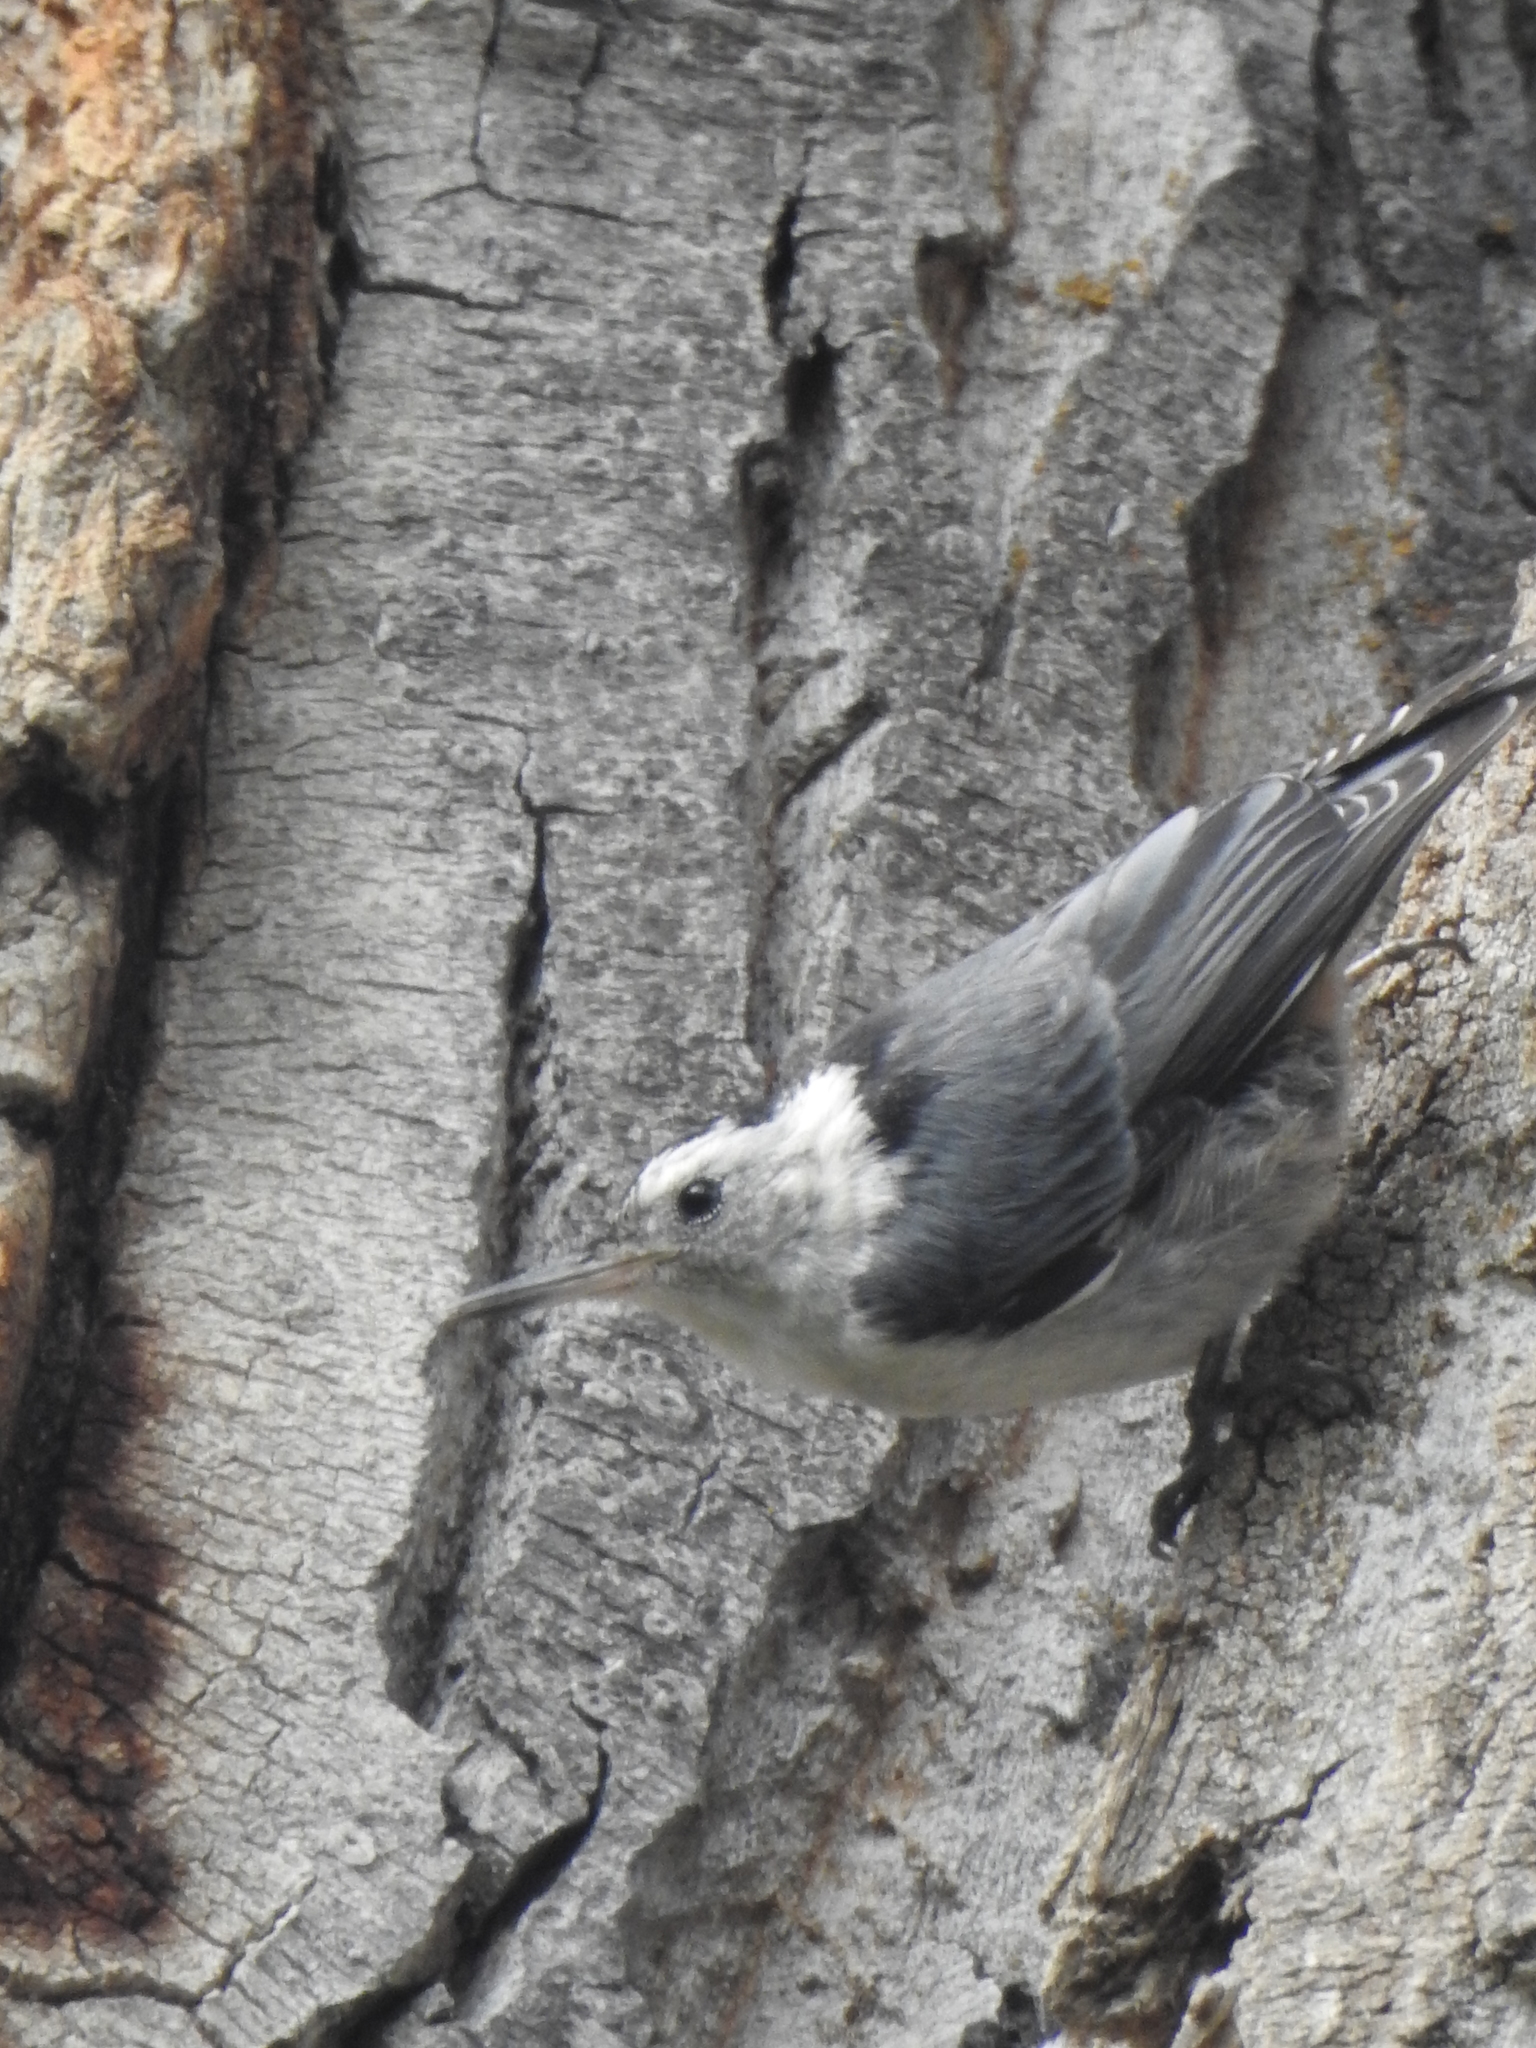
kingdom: Animalia
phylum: Chordata
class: Aves
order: Passeriformes
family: Sittidae
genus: Sitta
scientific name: Sitta carolinensis
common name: White-breasted nuthatch
